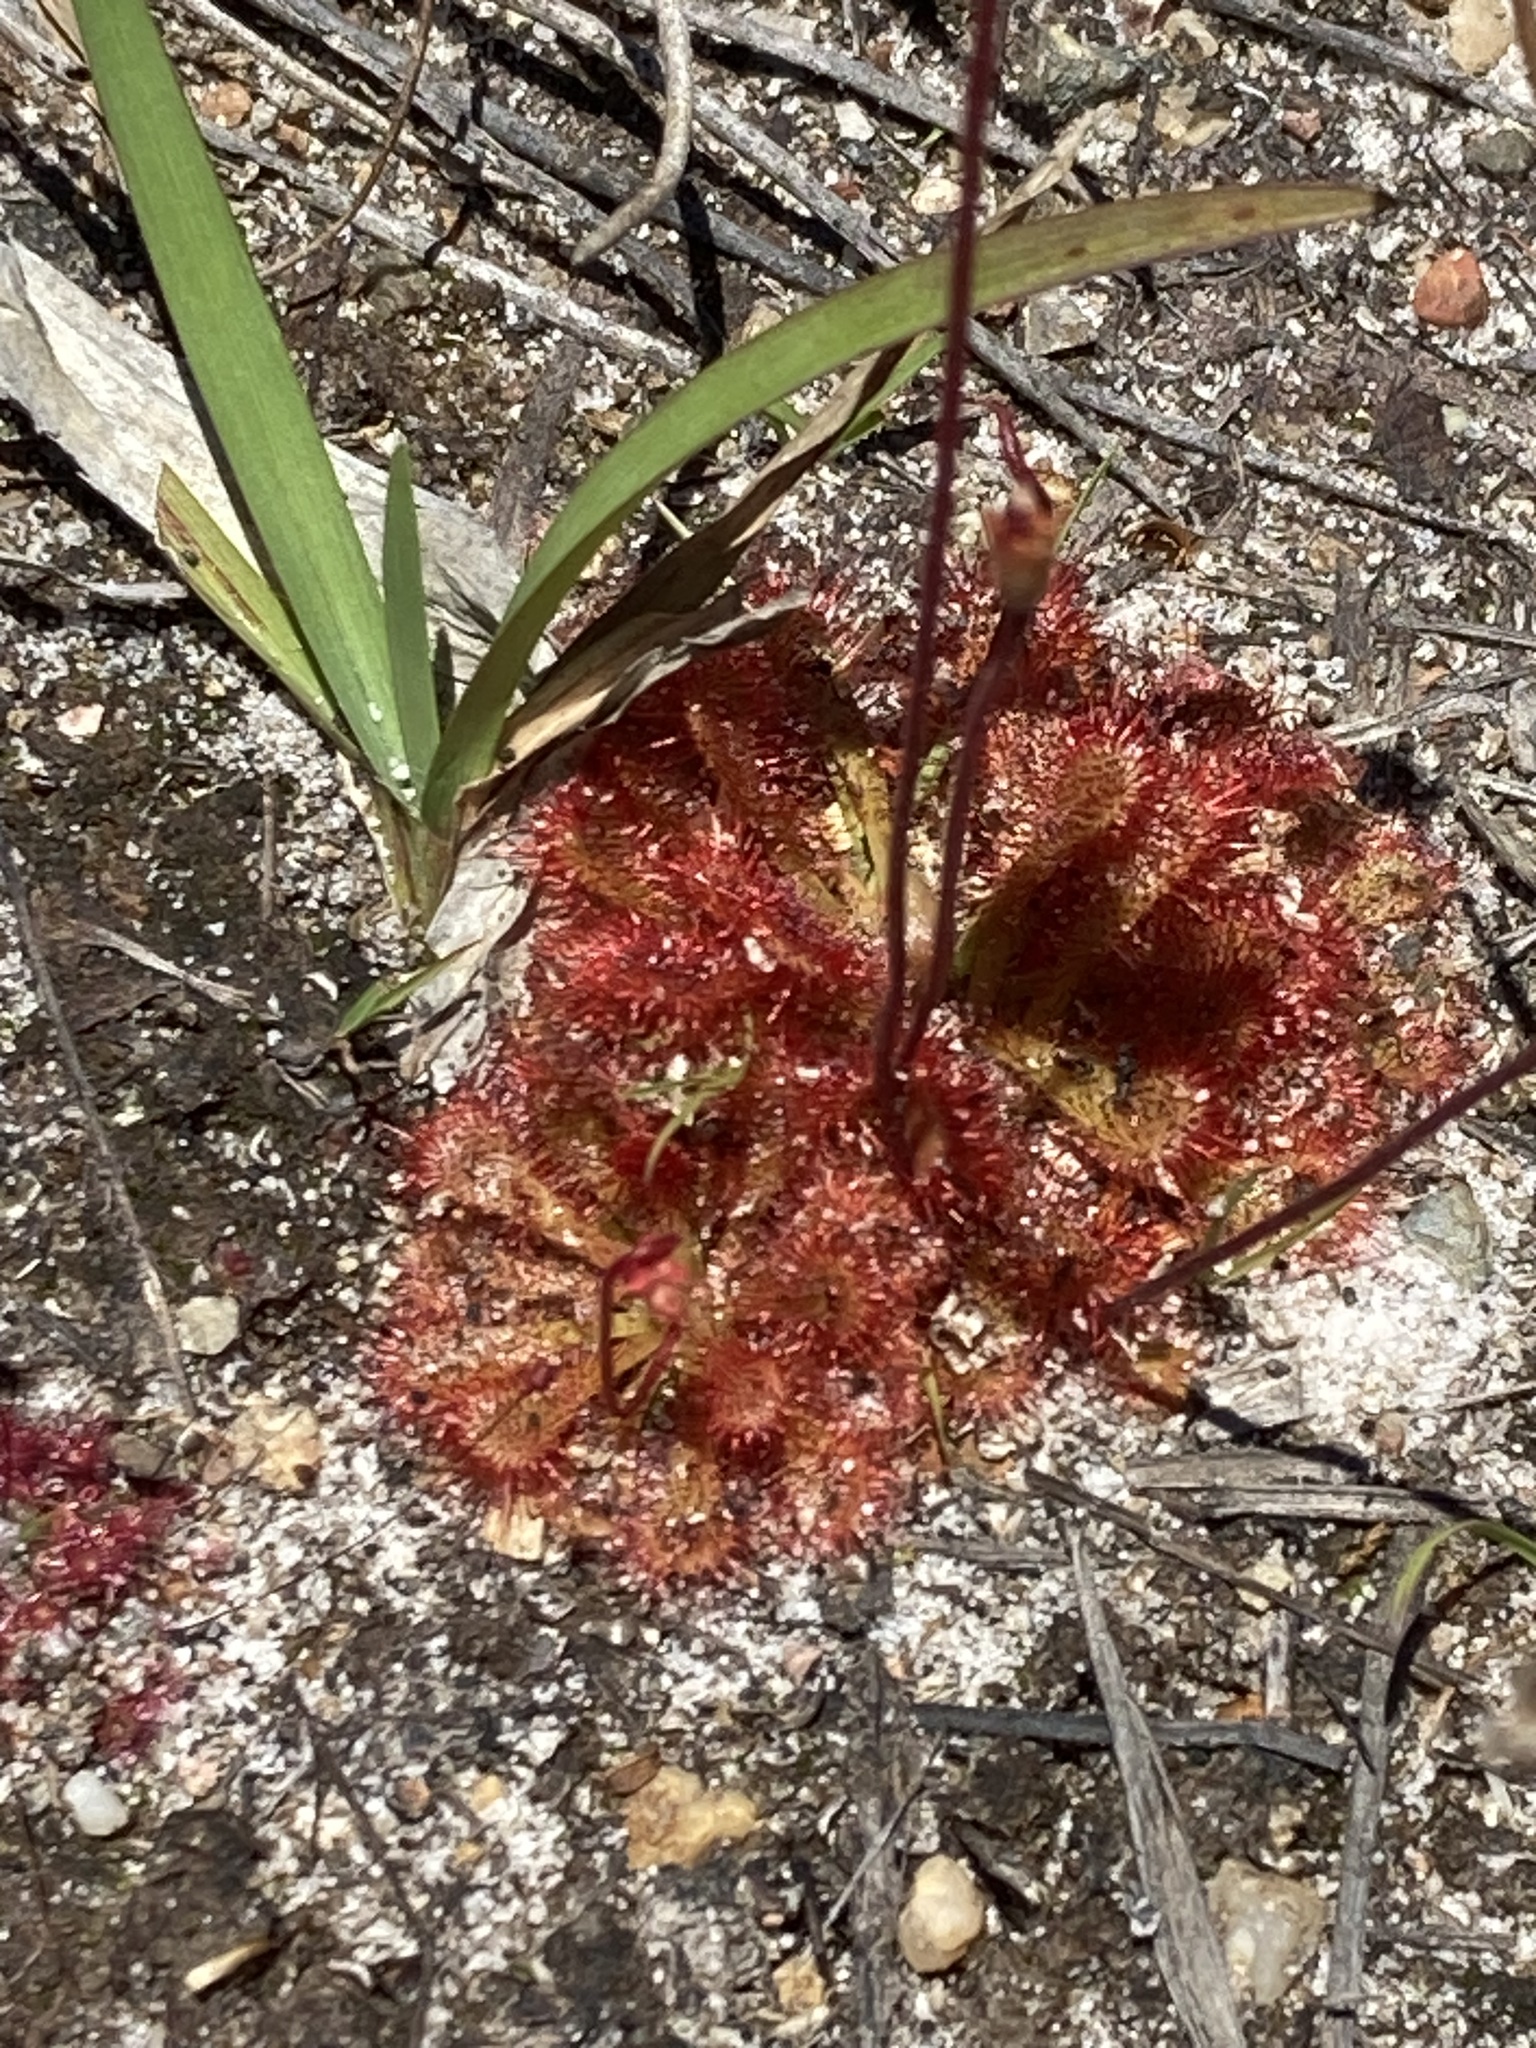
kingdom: Plantae
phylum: Tracheophyta
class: Magnoliopsida
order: Caryophyllales
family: Droseraceae
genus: Drosera
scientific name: Drosera spatulata
